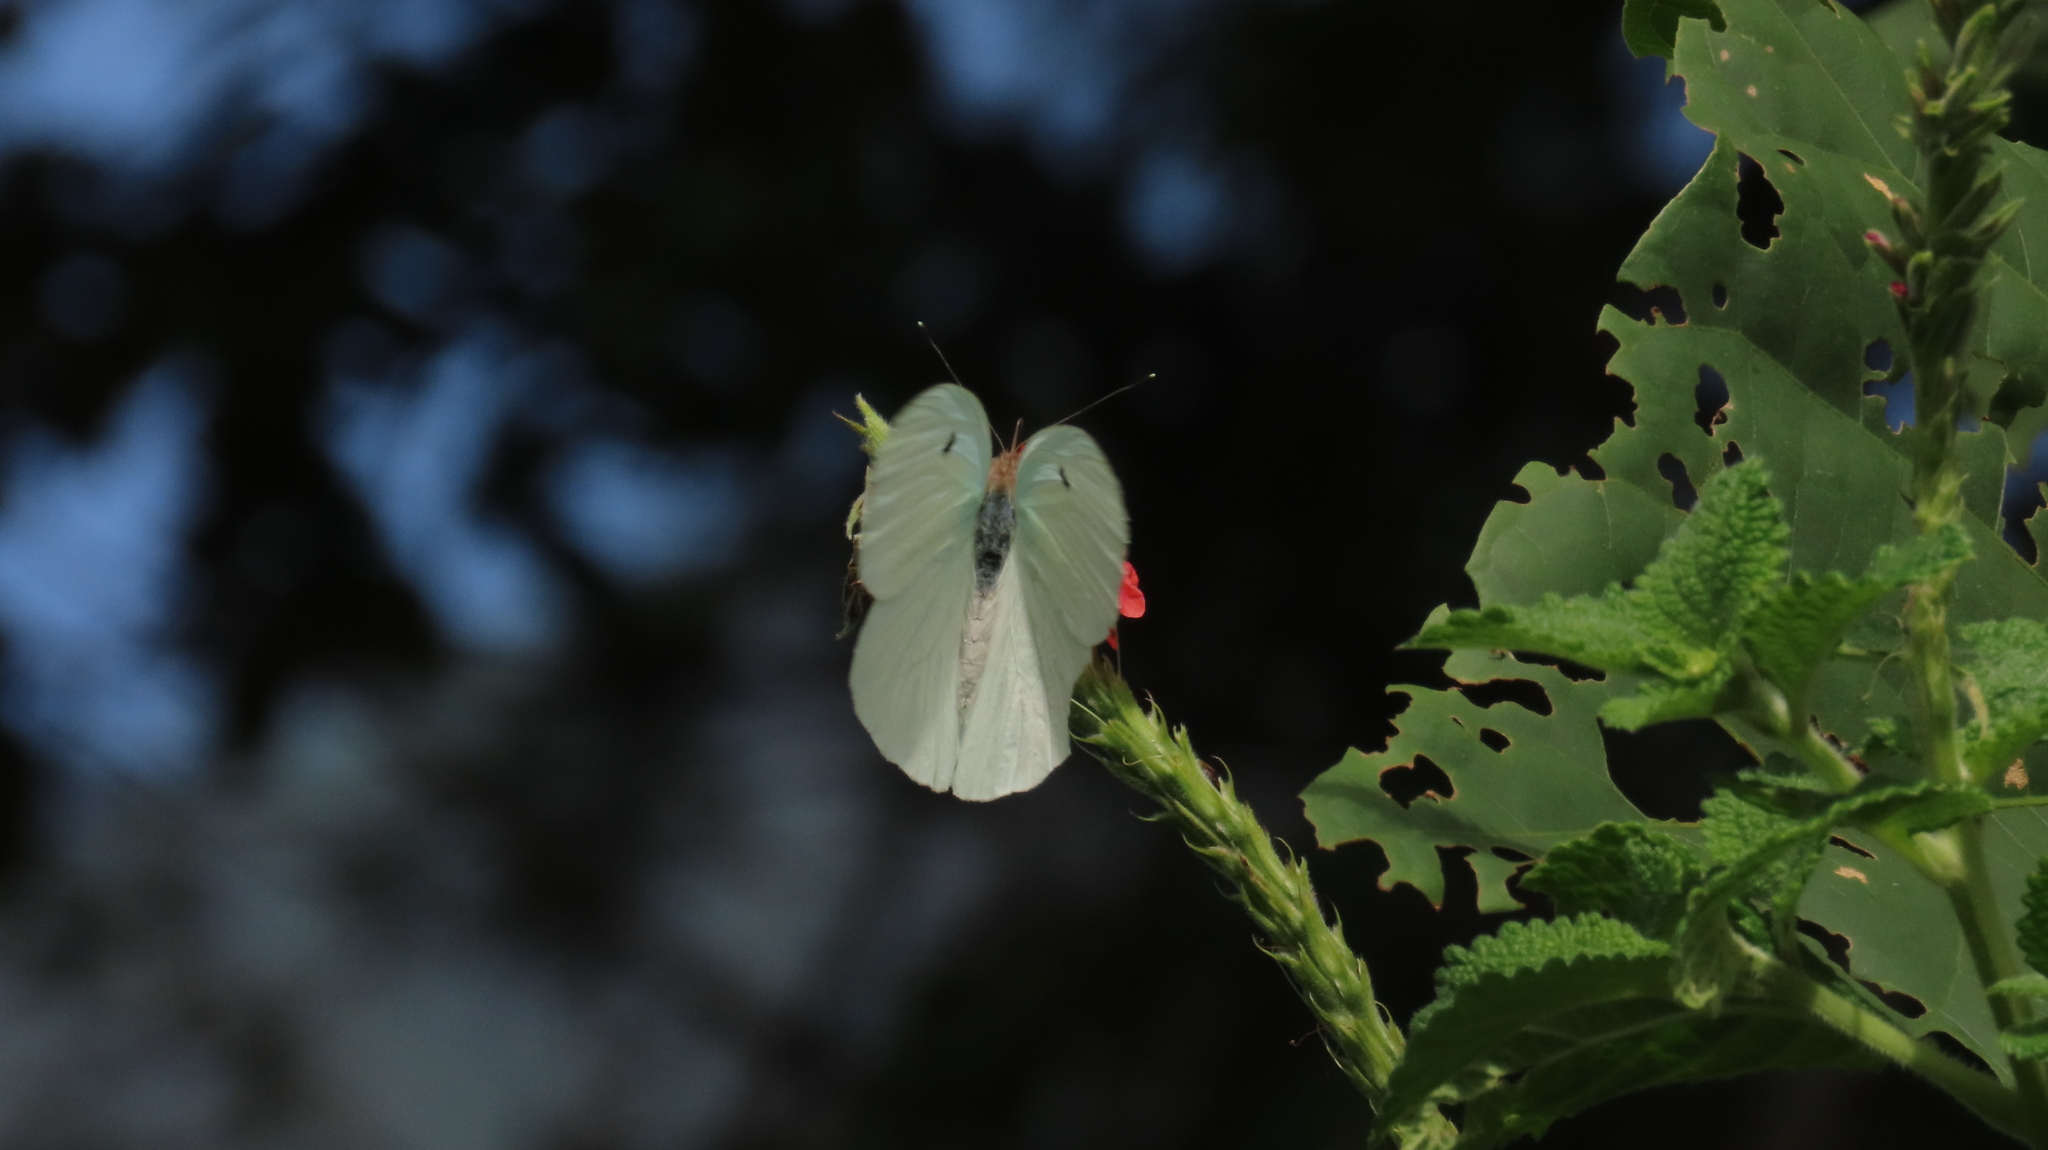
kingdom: Animalia
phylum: Arthropoda
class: Insecta
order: Lepidoptera
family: Pieridae
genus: Ganyra
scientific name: Ganyra josephina
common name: Giant white
